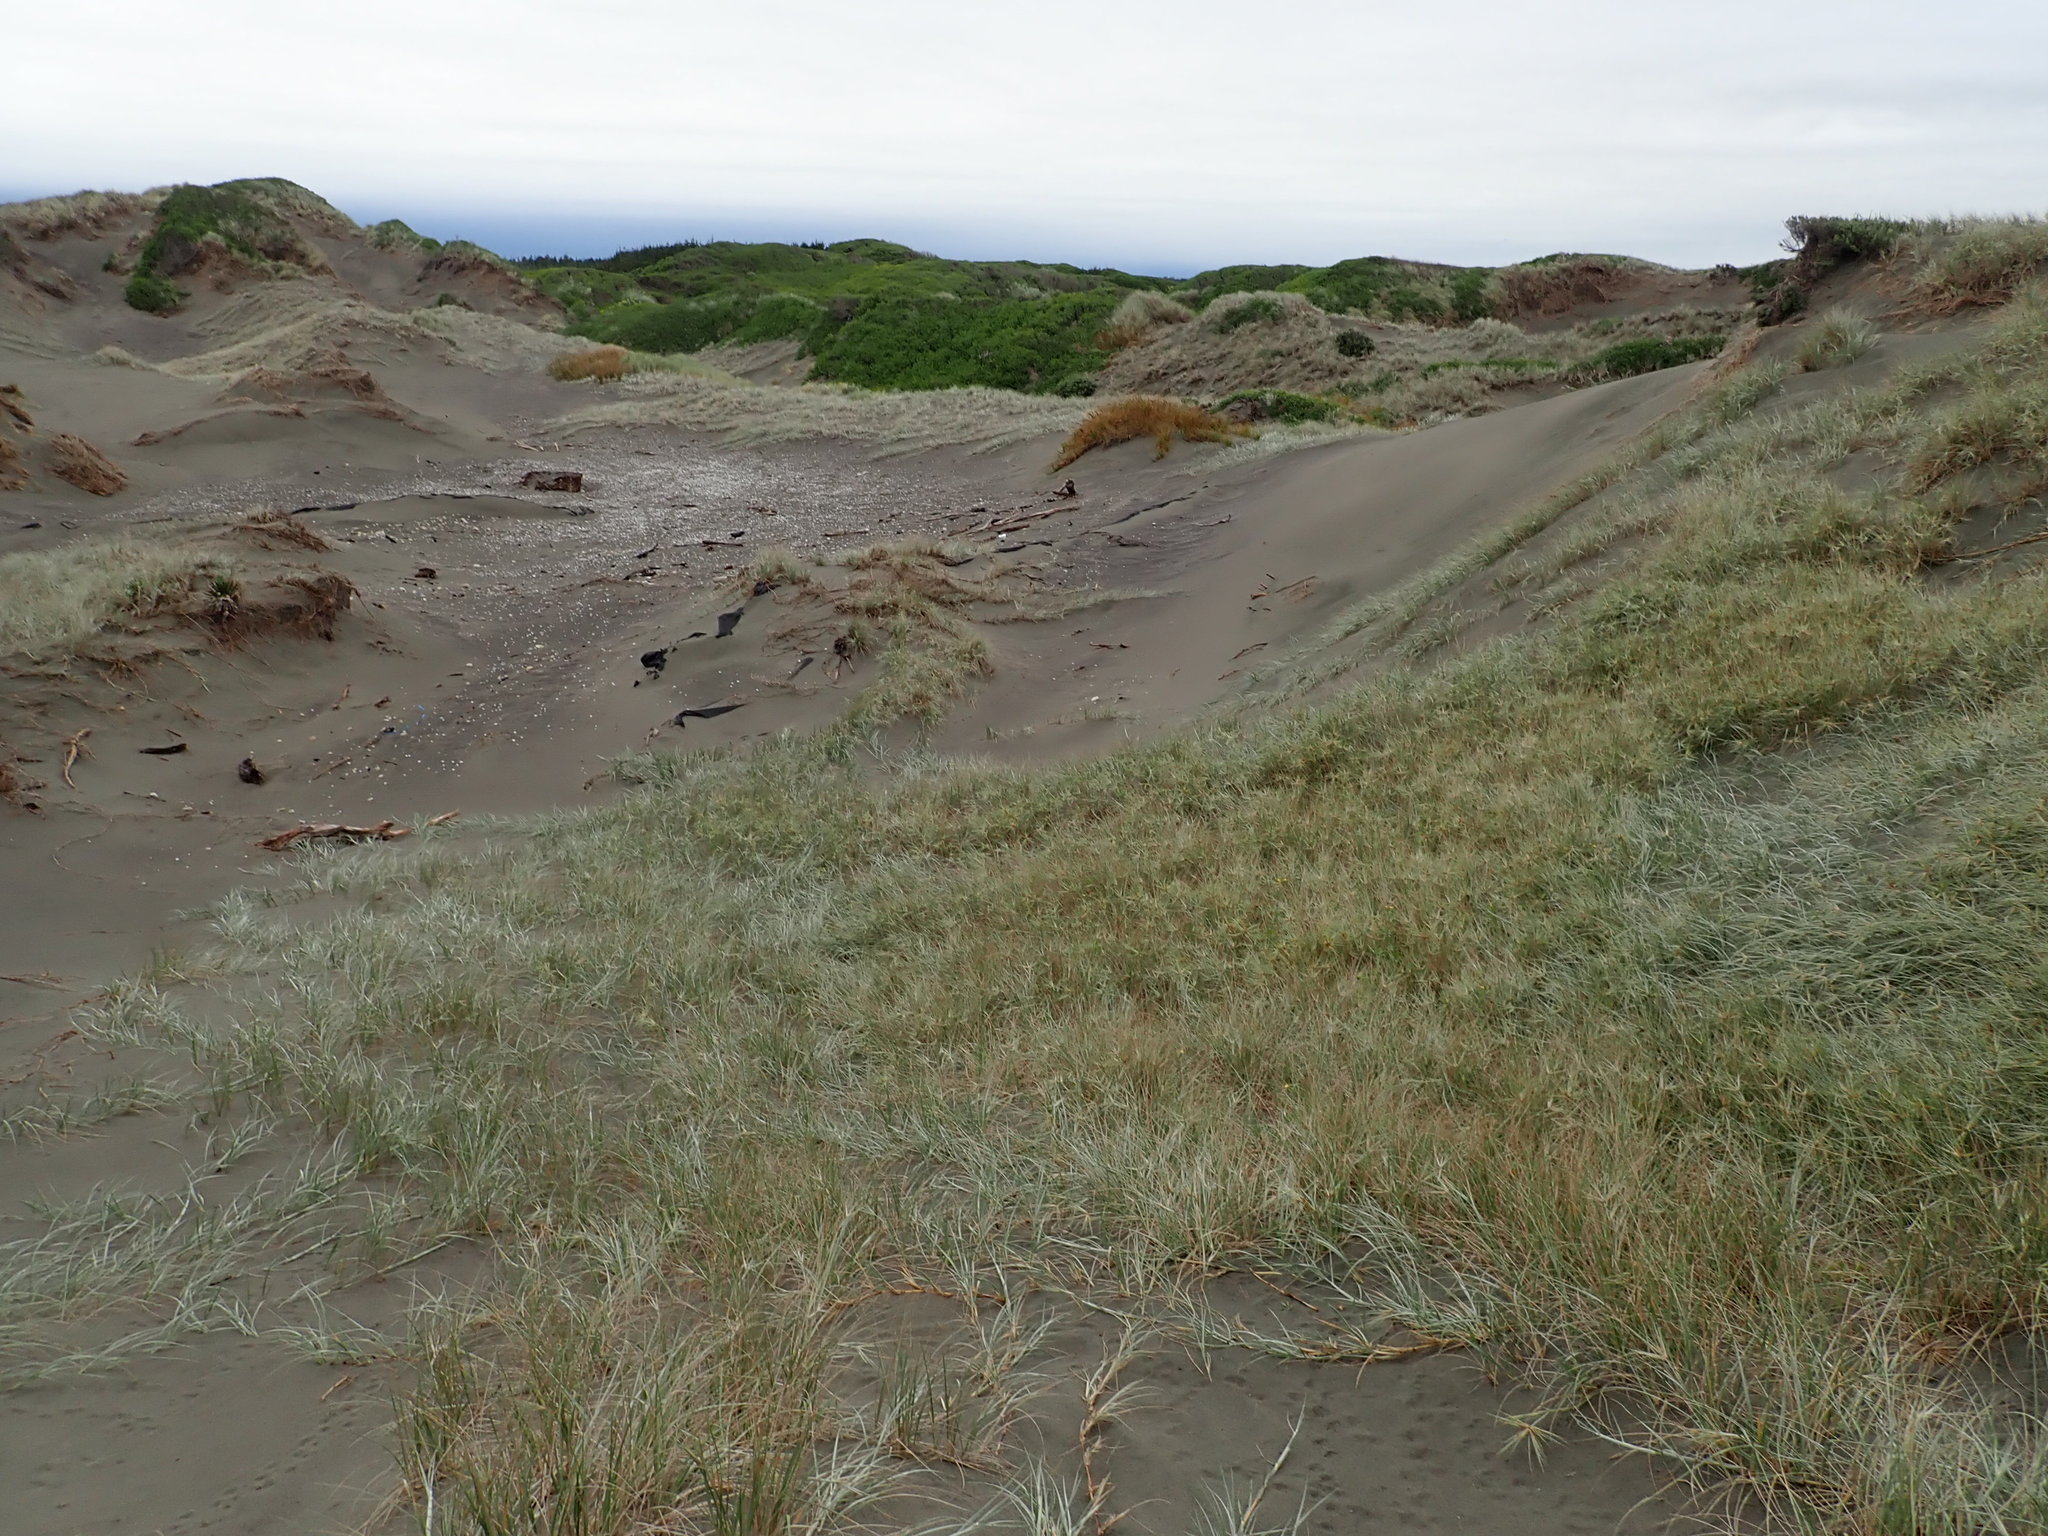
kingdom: Plantae
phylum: Tracheophyta
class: Liliopsida
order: Poales
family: Cyperaceae
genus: Ficinia
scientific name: Ficinia spiralis
